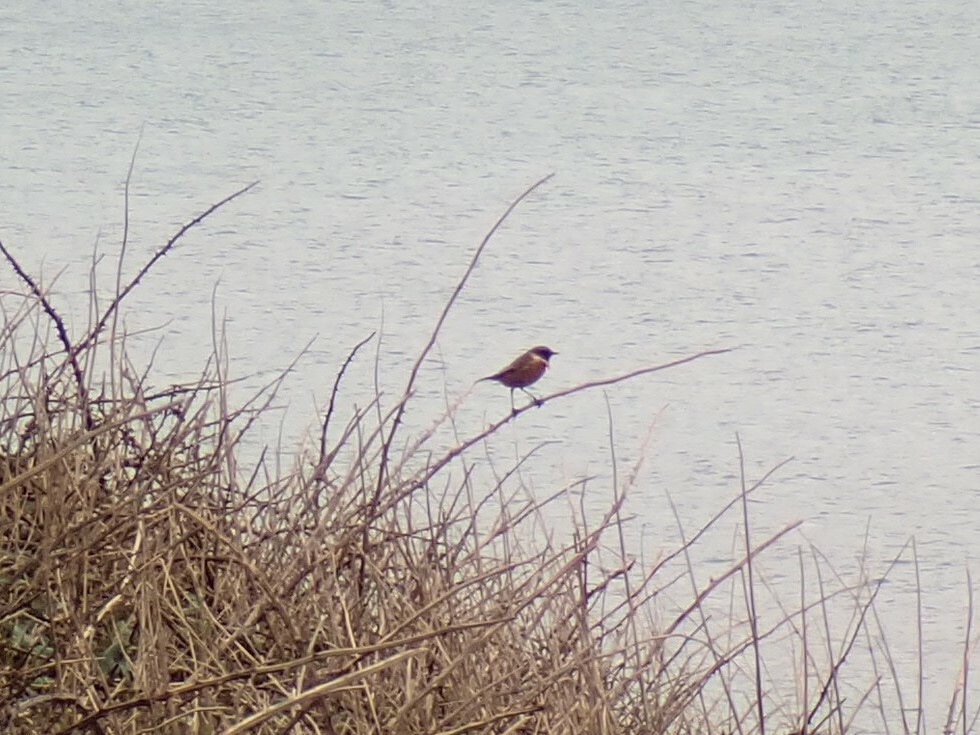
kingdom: Animalia
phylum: Chordata
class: Aves
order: Passeriformes
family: Muscicapidae
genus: Saxicola
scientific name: Saxicola rubicola
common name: European stonechat
